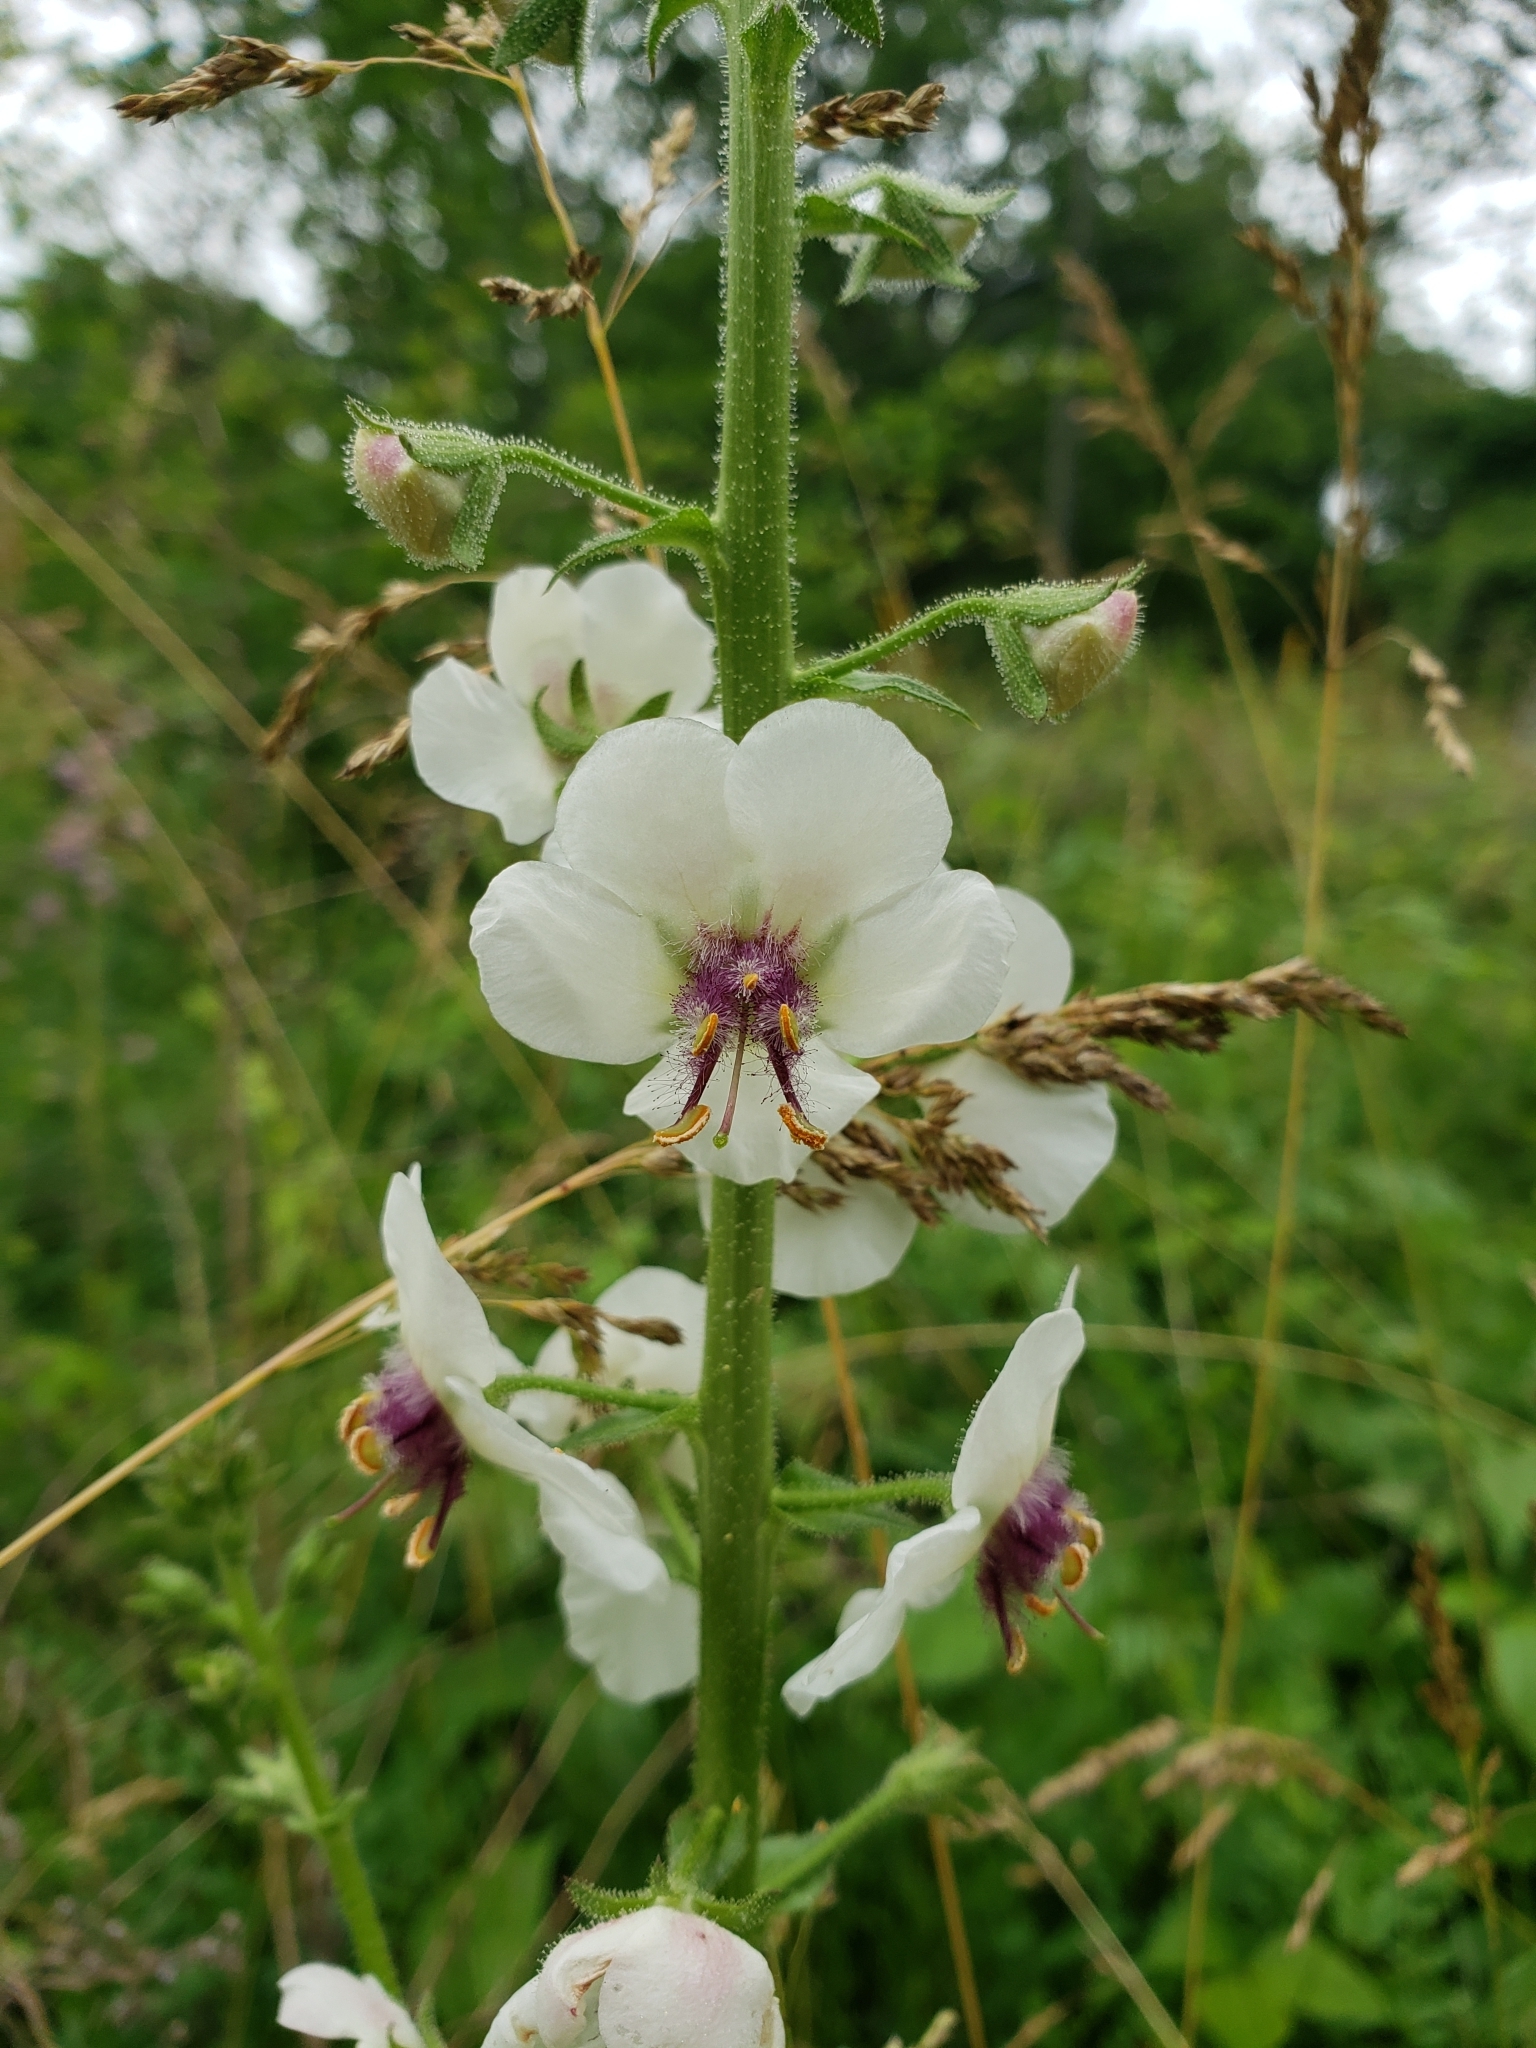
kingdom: Plantae
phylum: Tracheophyta
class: Magnoliopsida
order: Lamiales
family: Scrophulariaceae
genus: Verbascum
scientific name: Verbascum blattaria
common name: Moth mullein
